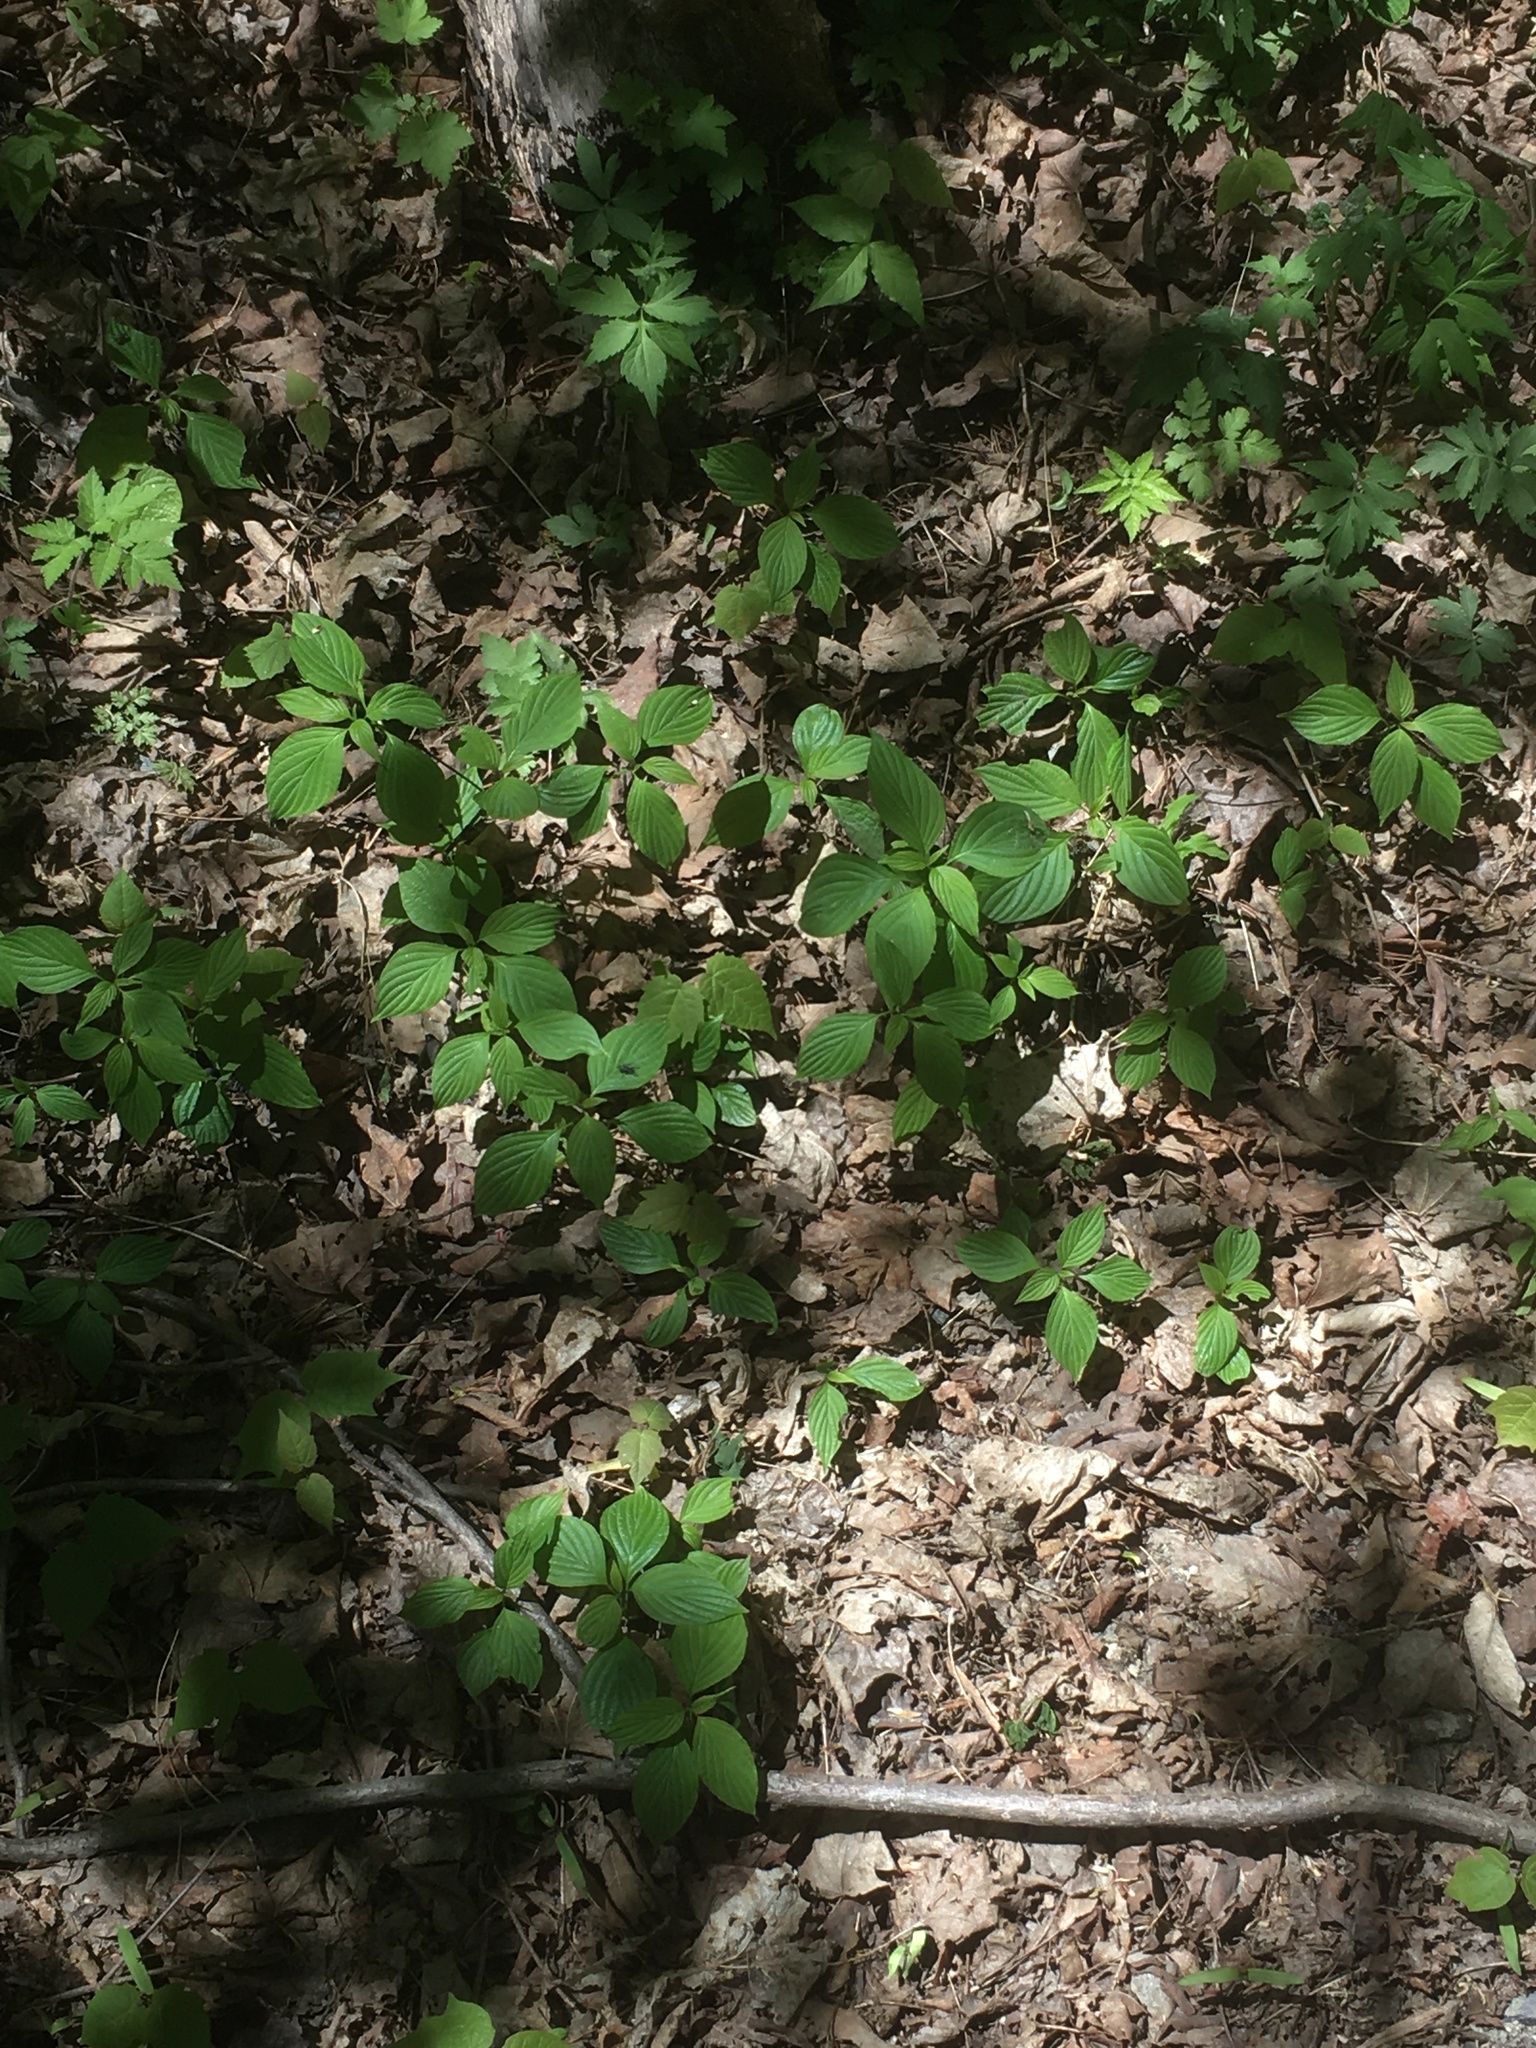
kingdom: Plantae
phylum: Tracheophyta
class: Magnoliopsida
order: Cornales
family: Cornaceae
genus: Cornus
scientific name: Cornus alternifolia
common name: Pagoda dogwood
